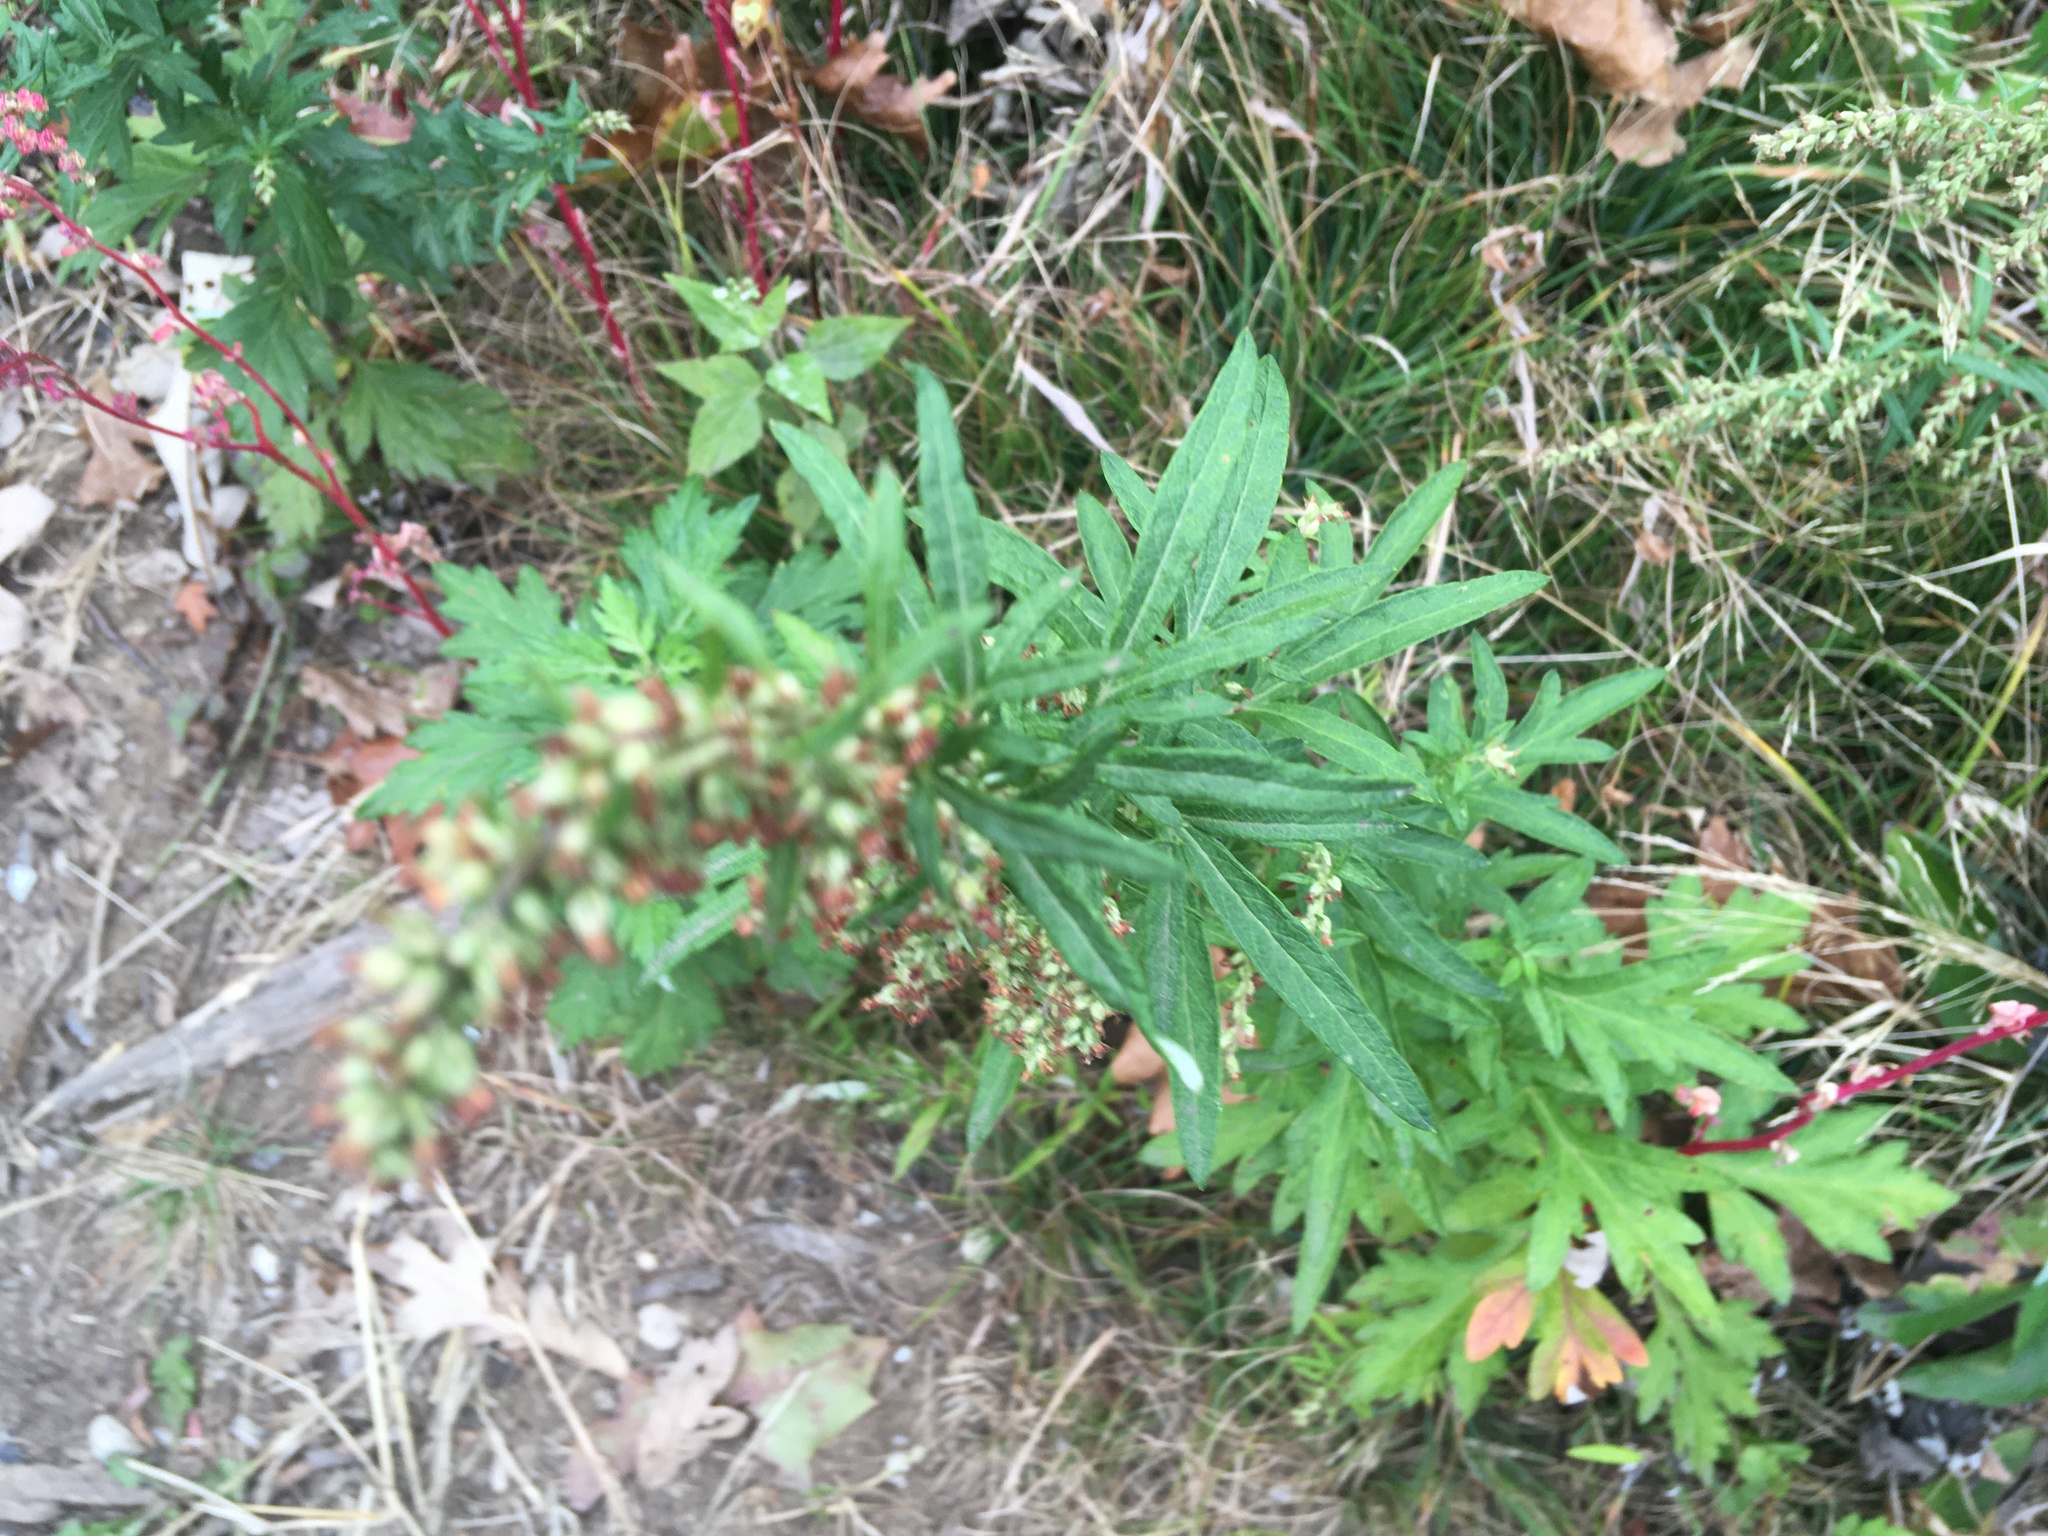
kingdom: Plantae
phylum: Tracheophyta
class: Magnoliopsida
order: Asterales
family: Asteraceae
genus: Artemisia
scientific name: Artemisia vulgaris
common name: Mugwort
